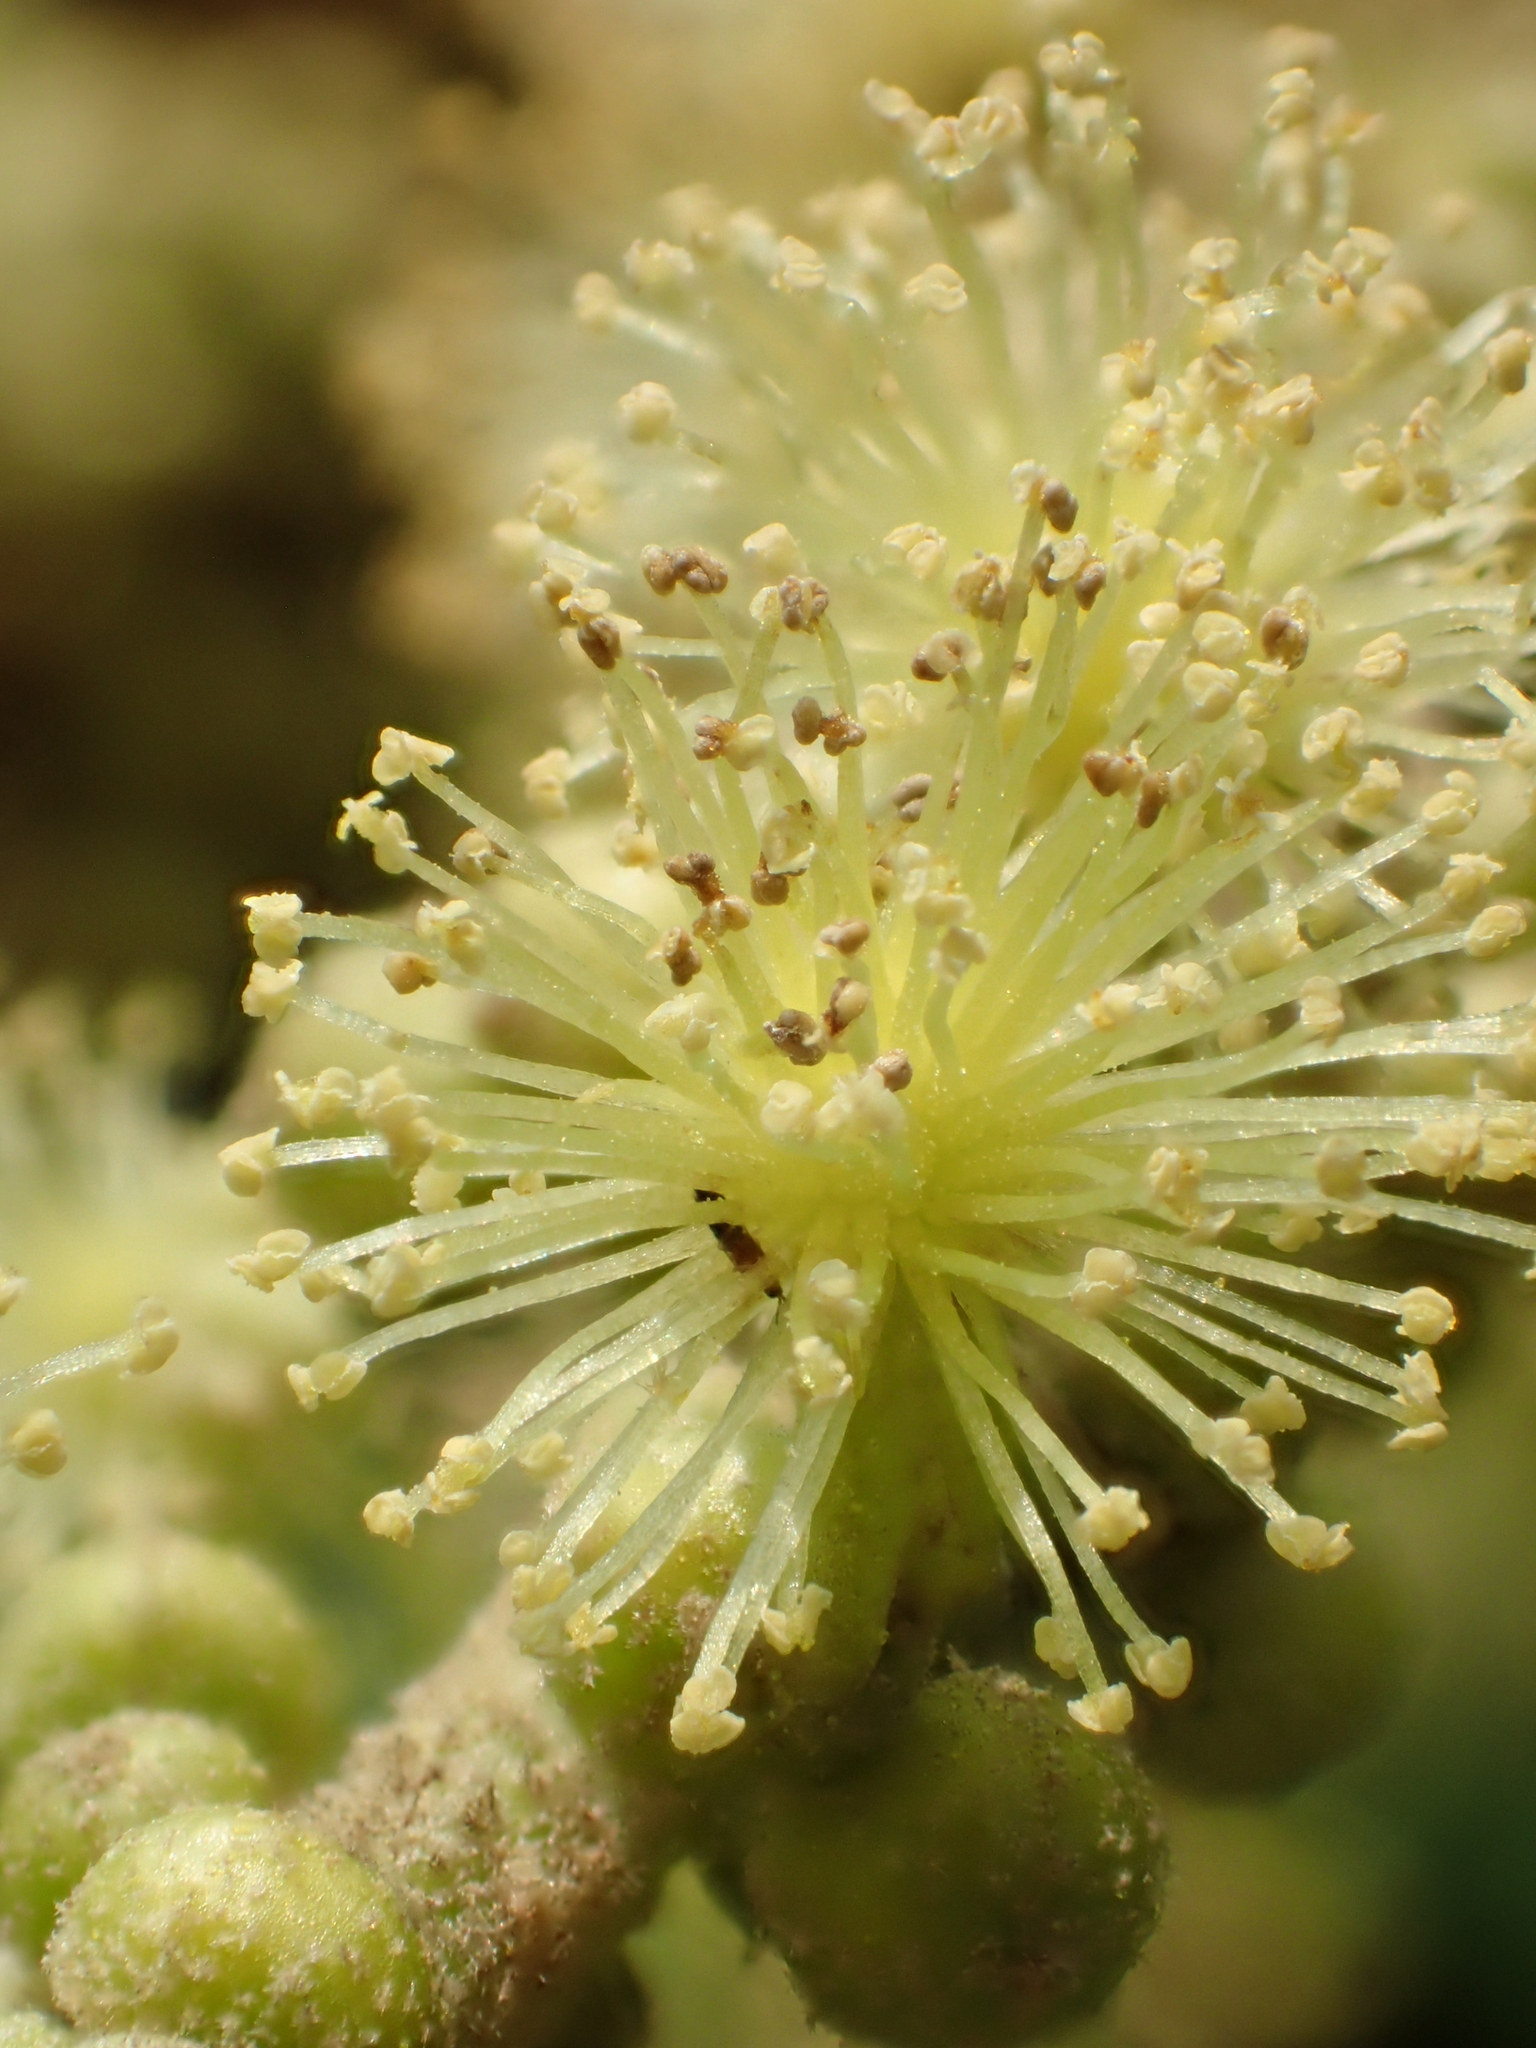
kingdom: Plantae
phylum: Tracheophyta
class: Magnoliopsida
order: Malpighiales
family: Euphorbiaceae
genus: Mallotus
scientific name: Mallotus japonicus
